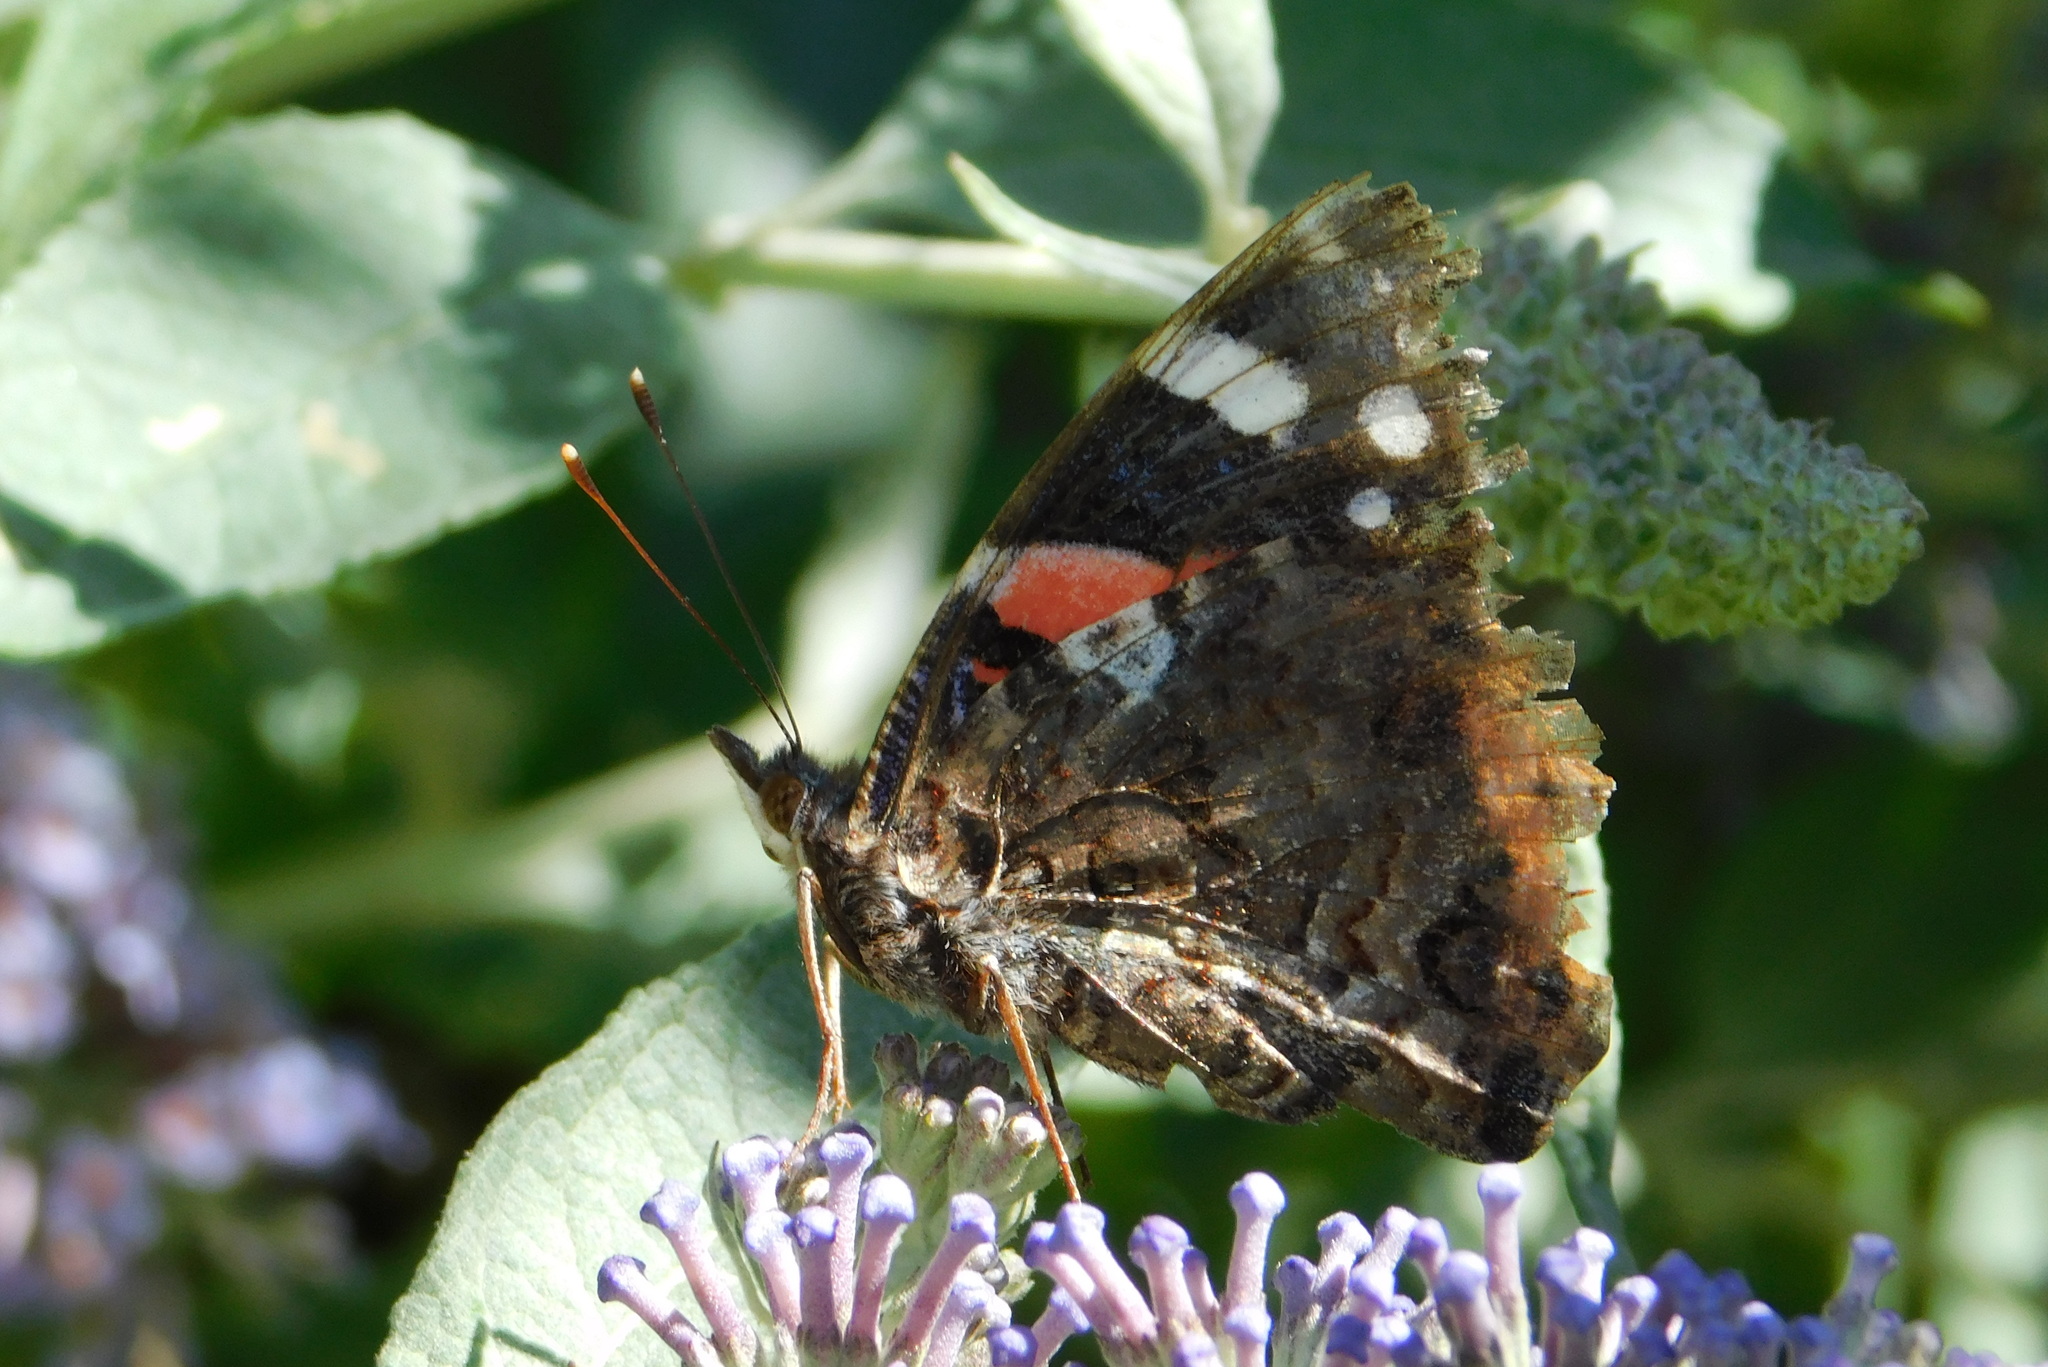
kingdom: Animalia
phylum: Arthropoda
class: Insecta
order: Lepidoptera
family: Nymphalidae
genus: Vanessa
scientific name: Vanessa atalanta
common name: Red admiral
